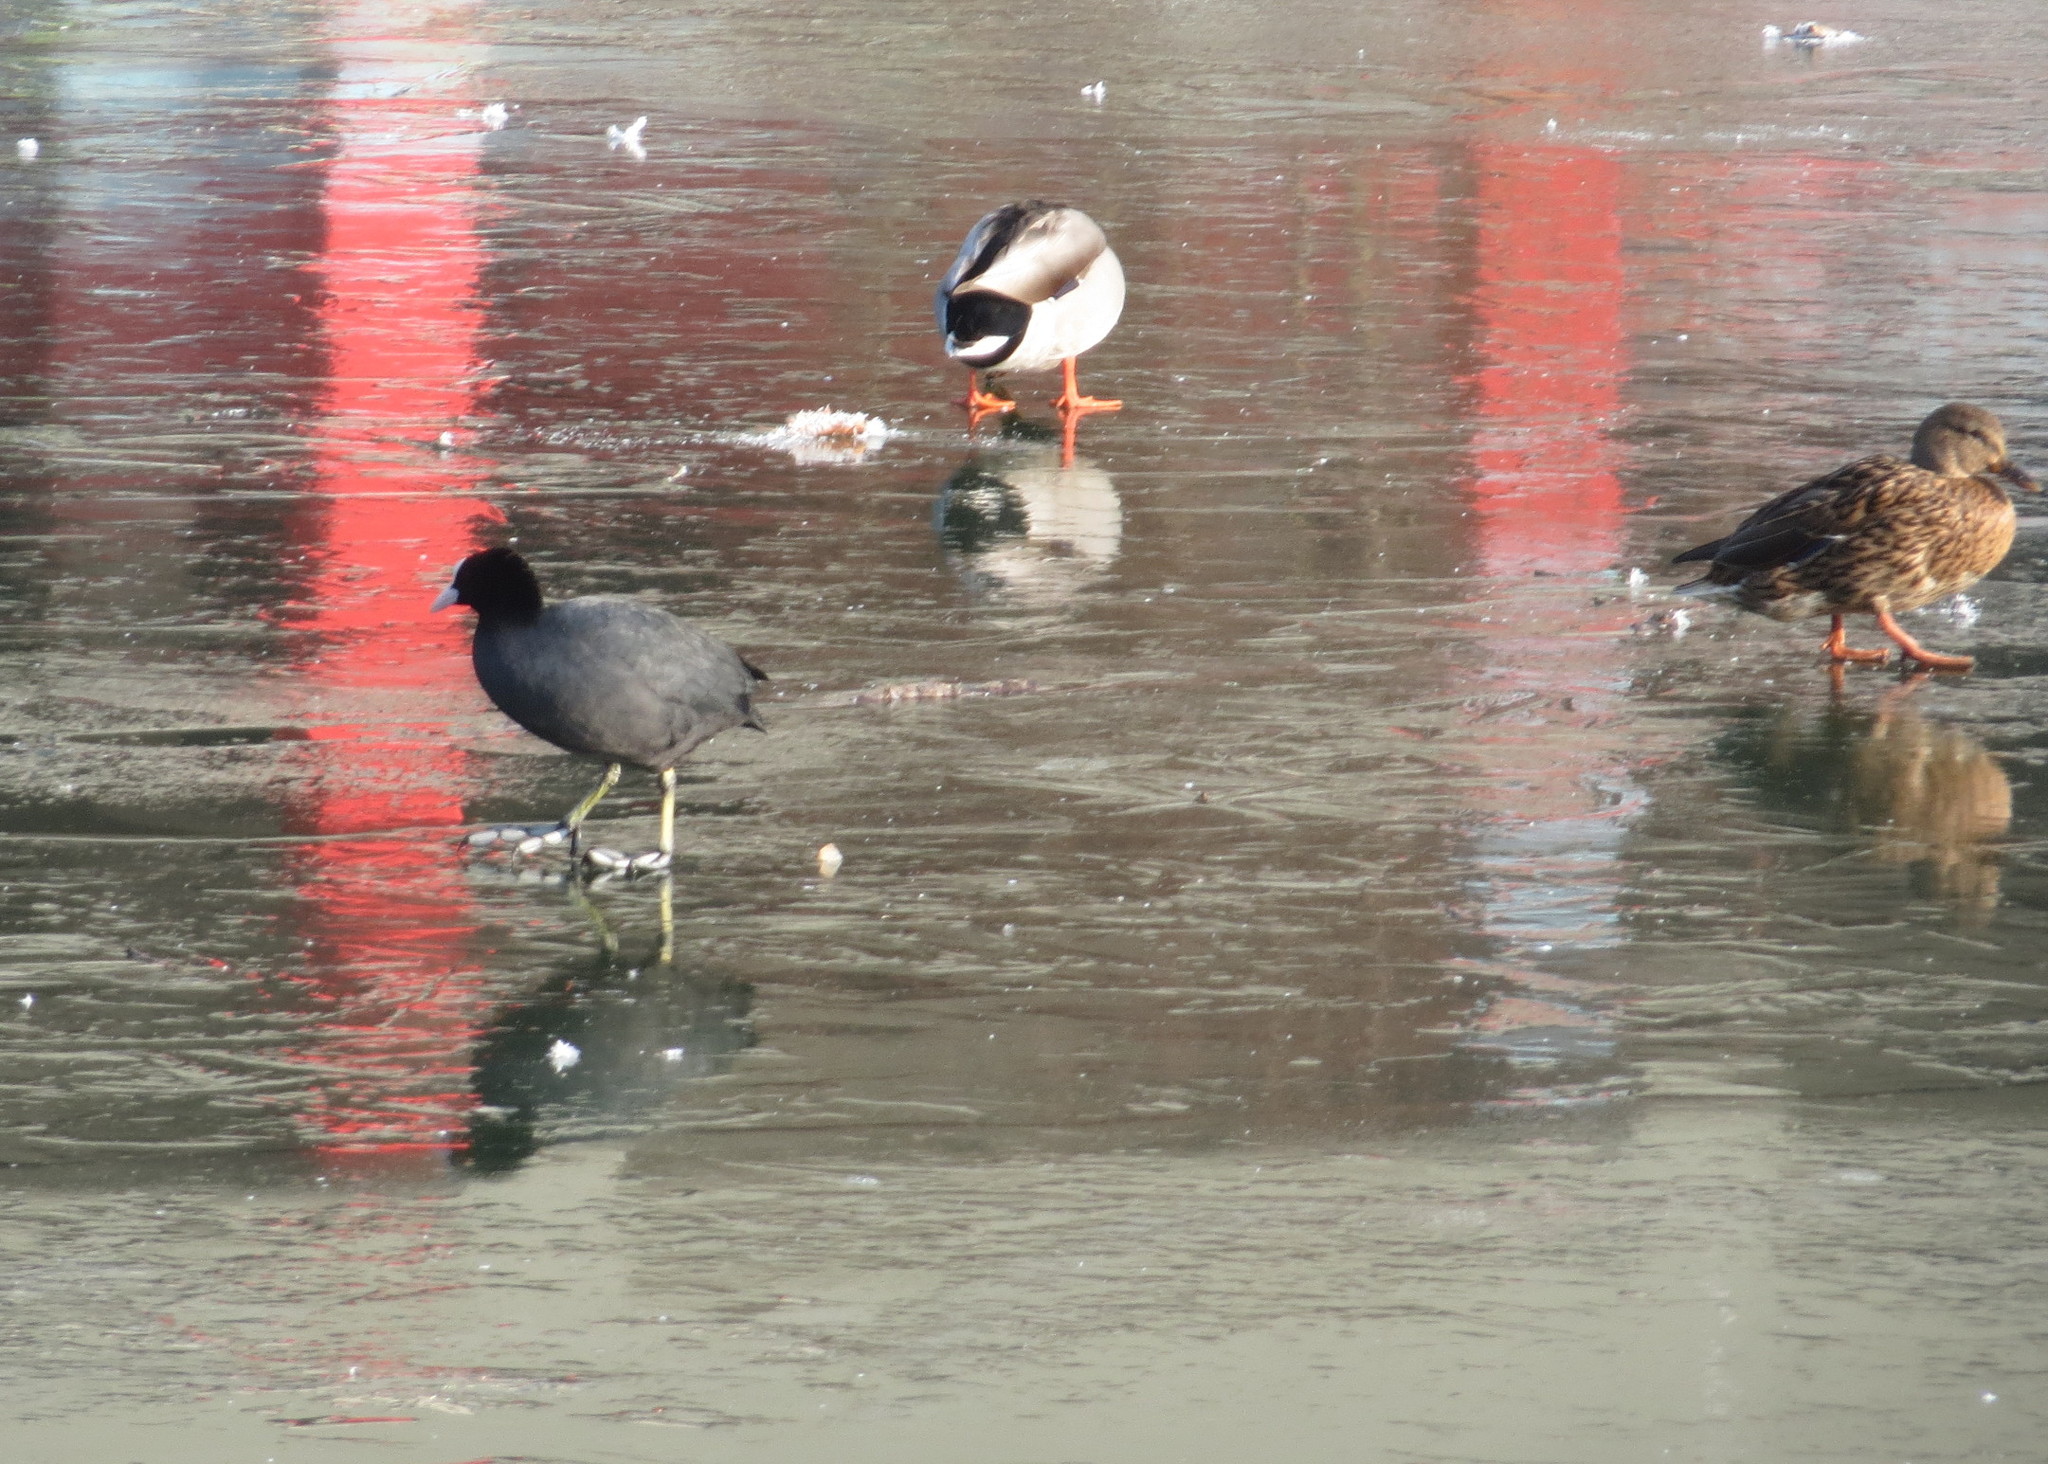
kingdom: Animalia
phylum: Chordata
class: Aves
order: Gruiformes
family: Rallidae
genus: Fulica
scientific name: Fulica atra
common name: Eurasian coot
